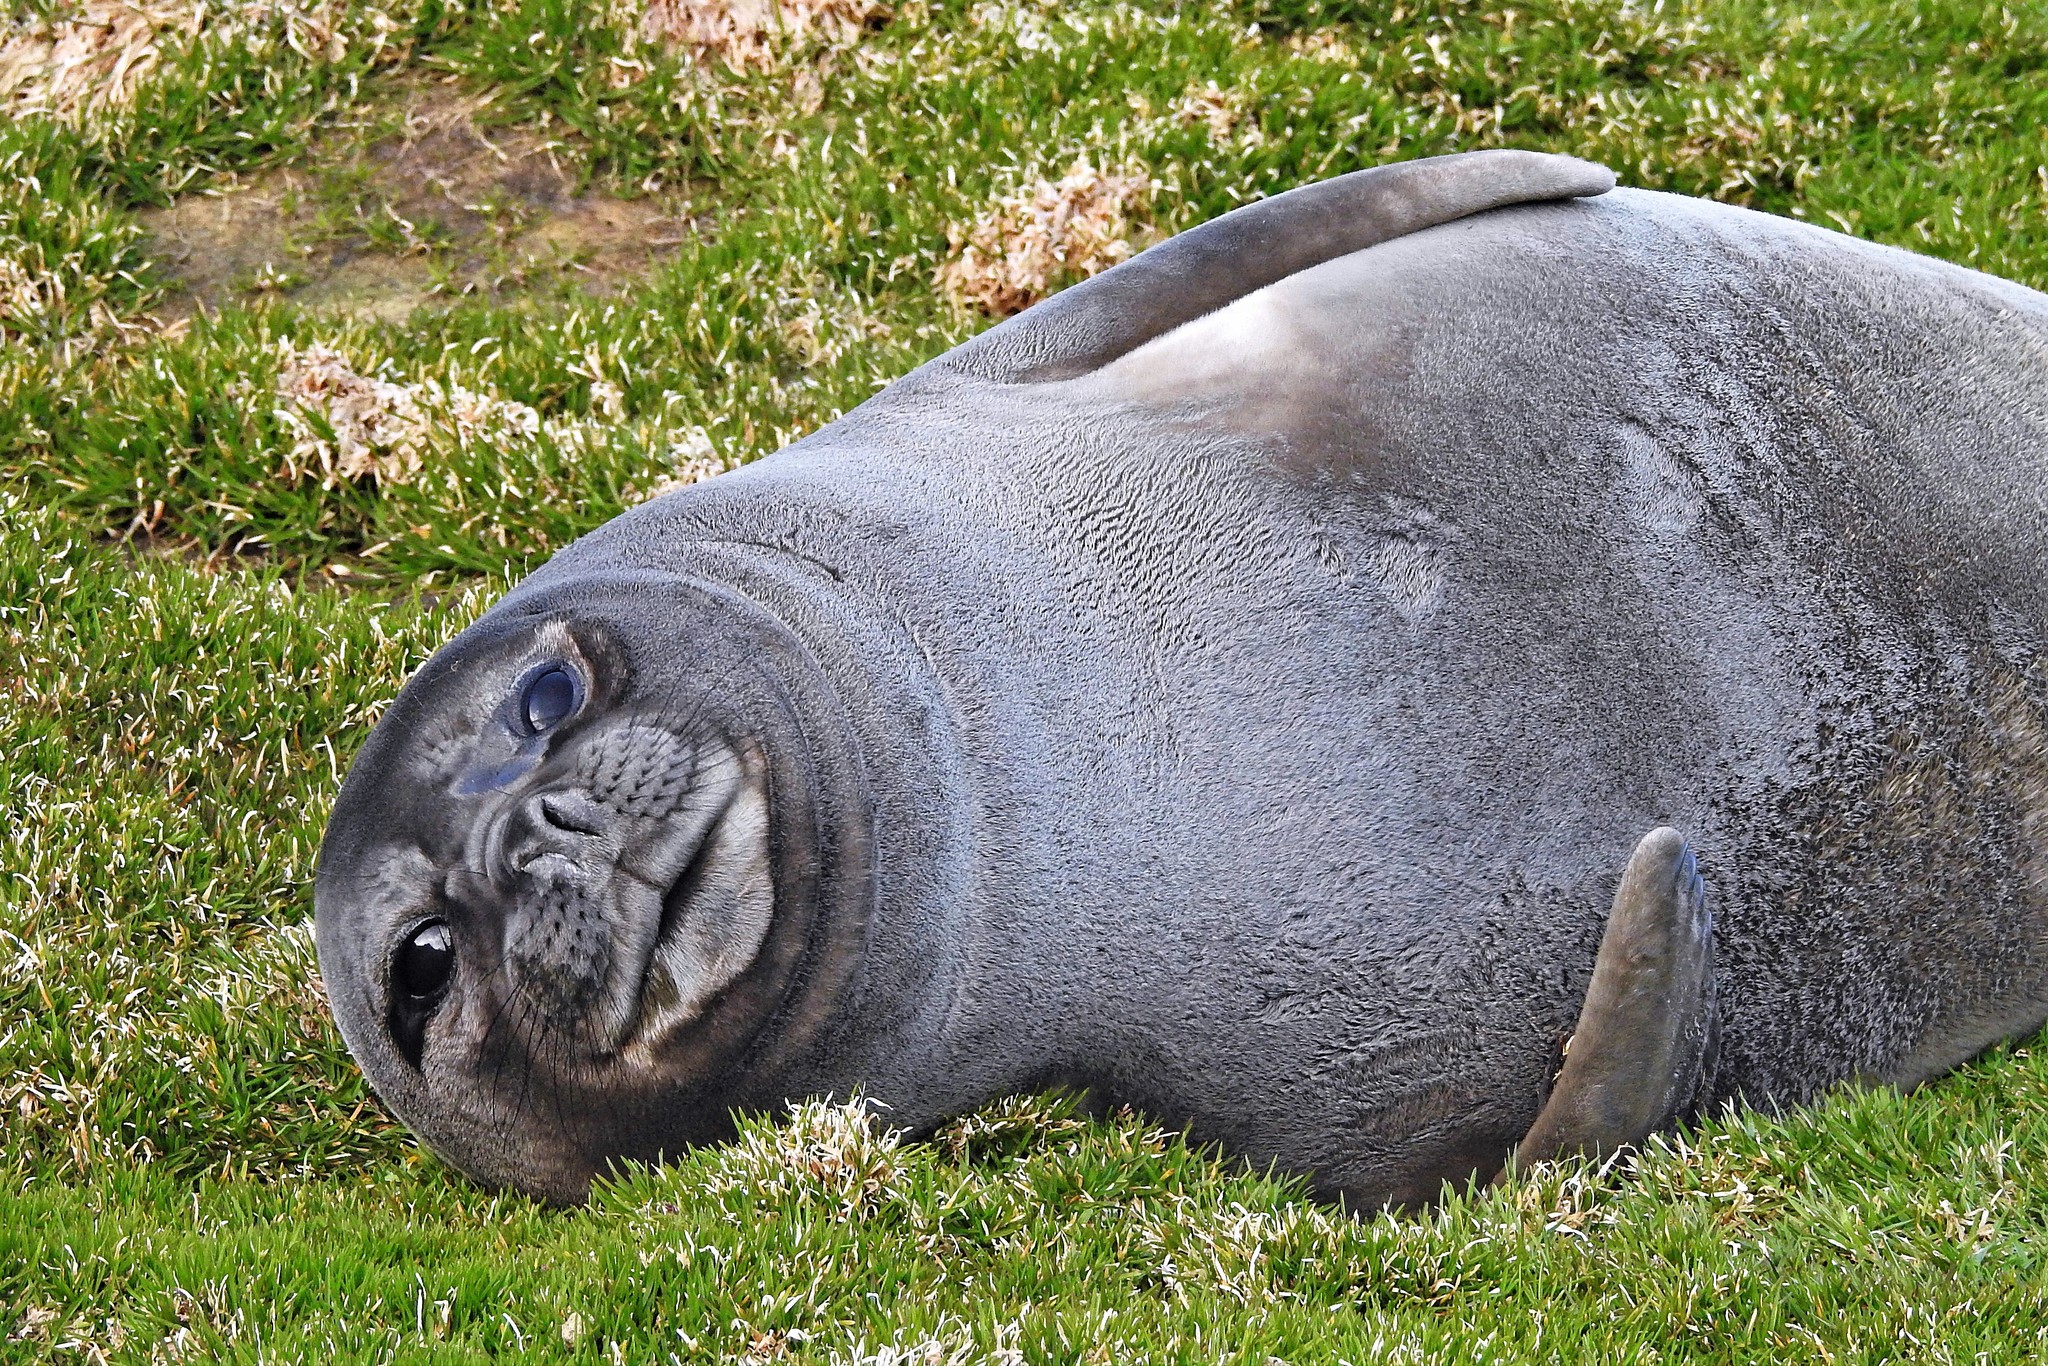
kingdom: Animalia
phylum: Chordata
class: Mammalia
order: Carnivora
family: Phocidae
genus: Mirounga
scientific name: Mirounga leonina
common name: Southern elephant seal
